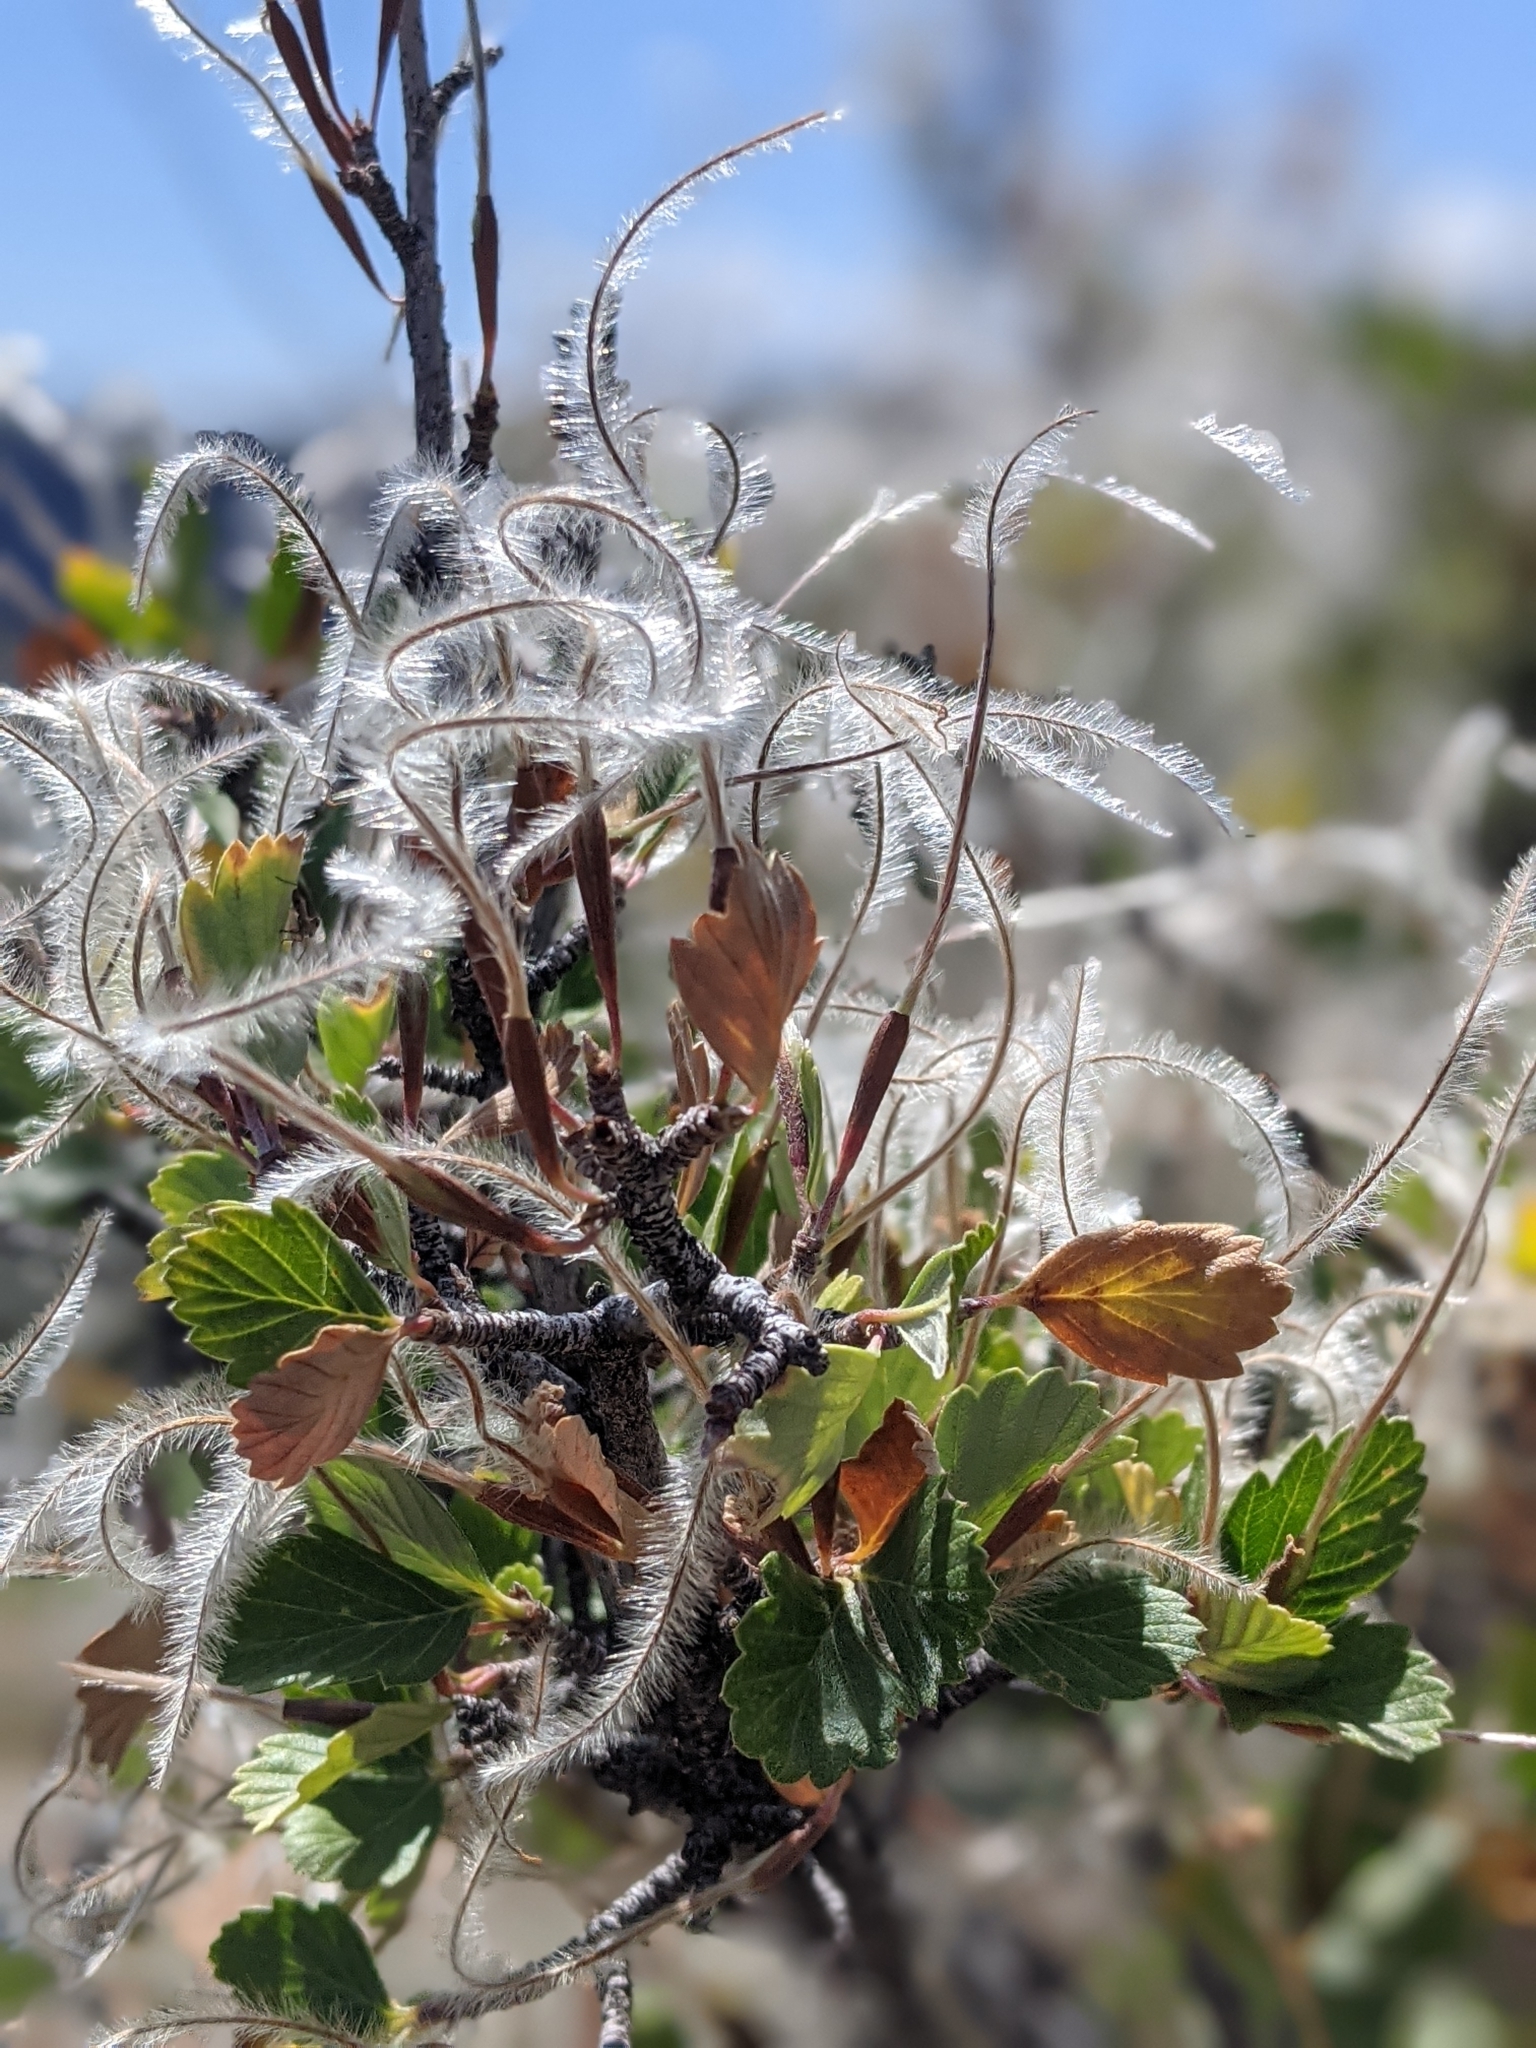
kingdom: Plantae
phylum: Tracheophyta
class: Magnoliopsida
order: Rosales
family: Rosaceae
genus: Cercocarpus
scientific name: Cercocarpus montanus
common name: Alder-leaf cercocarpus
